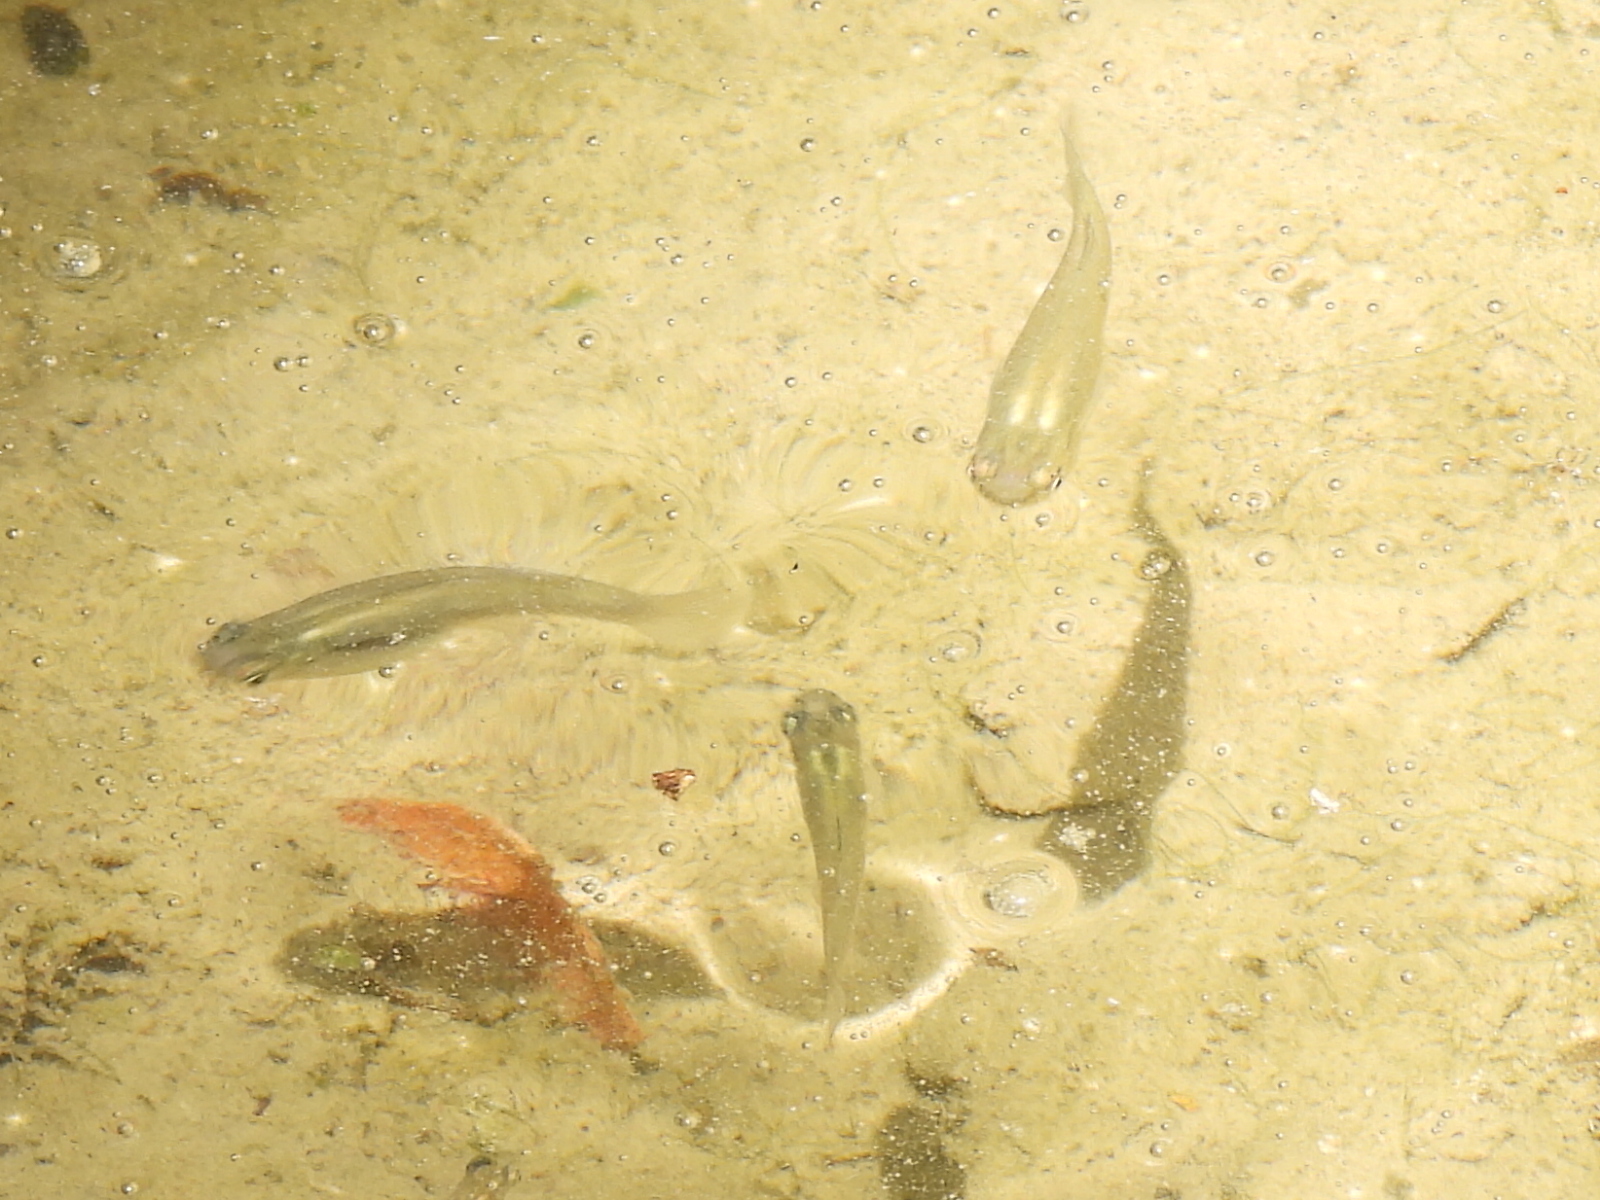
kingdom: Animalia
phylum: Chordata
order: Cyprinodontiformes
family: Poeciliidae
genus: Gambusia
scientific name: Gambusia affinis
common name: Mosquitofish
